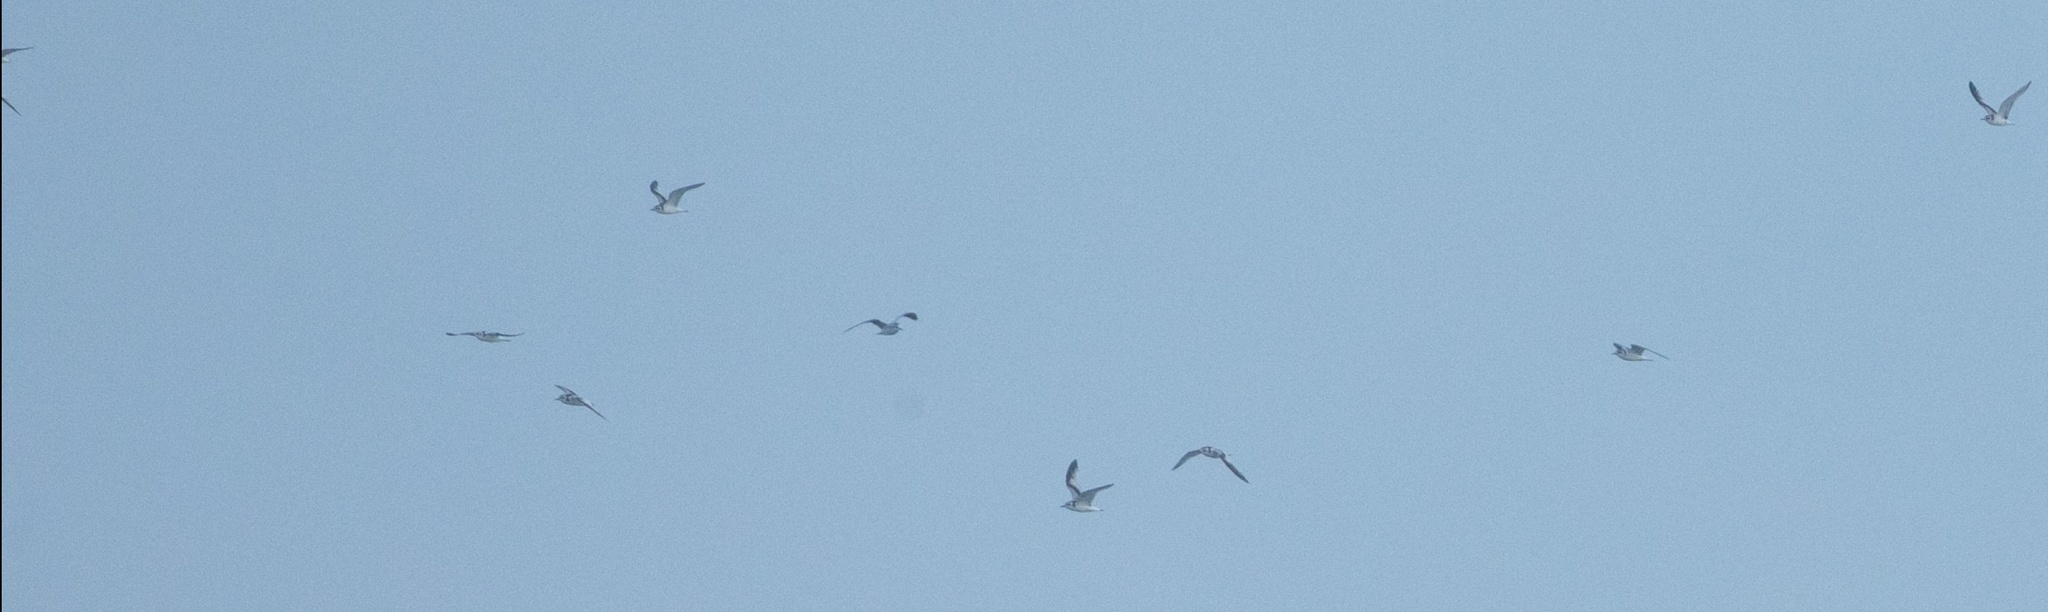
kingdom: Animalia
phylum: Chordata
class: Aves
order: Charadriiformes
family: Laridae
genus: Hydrocoloeus
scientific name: Hydrocoloeus minutus
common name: Little gull
